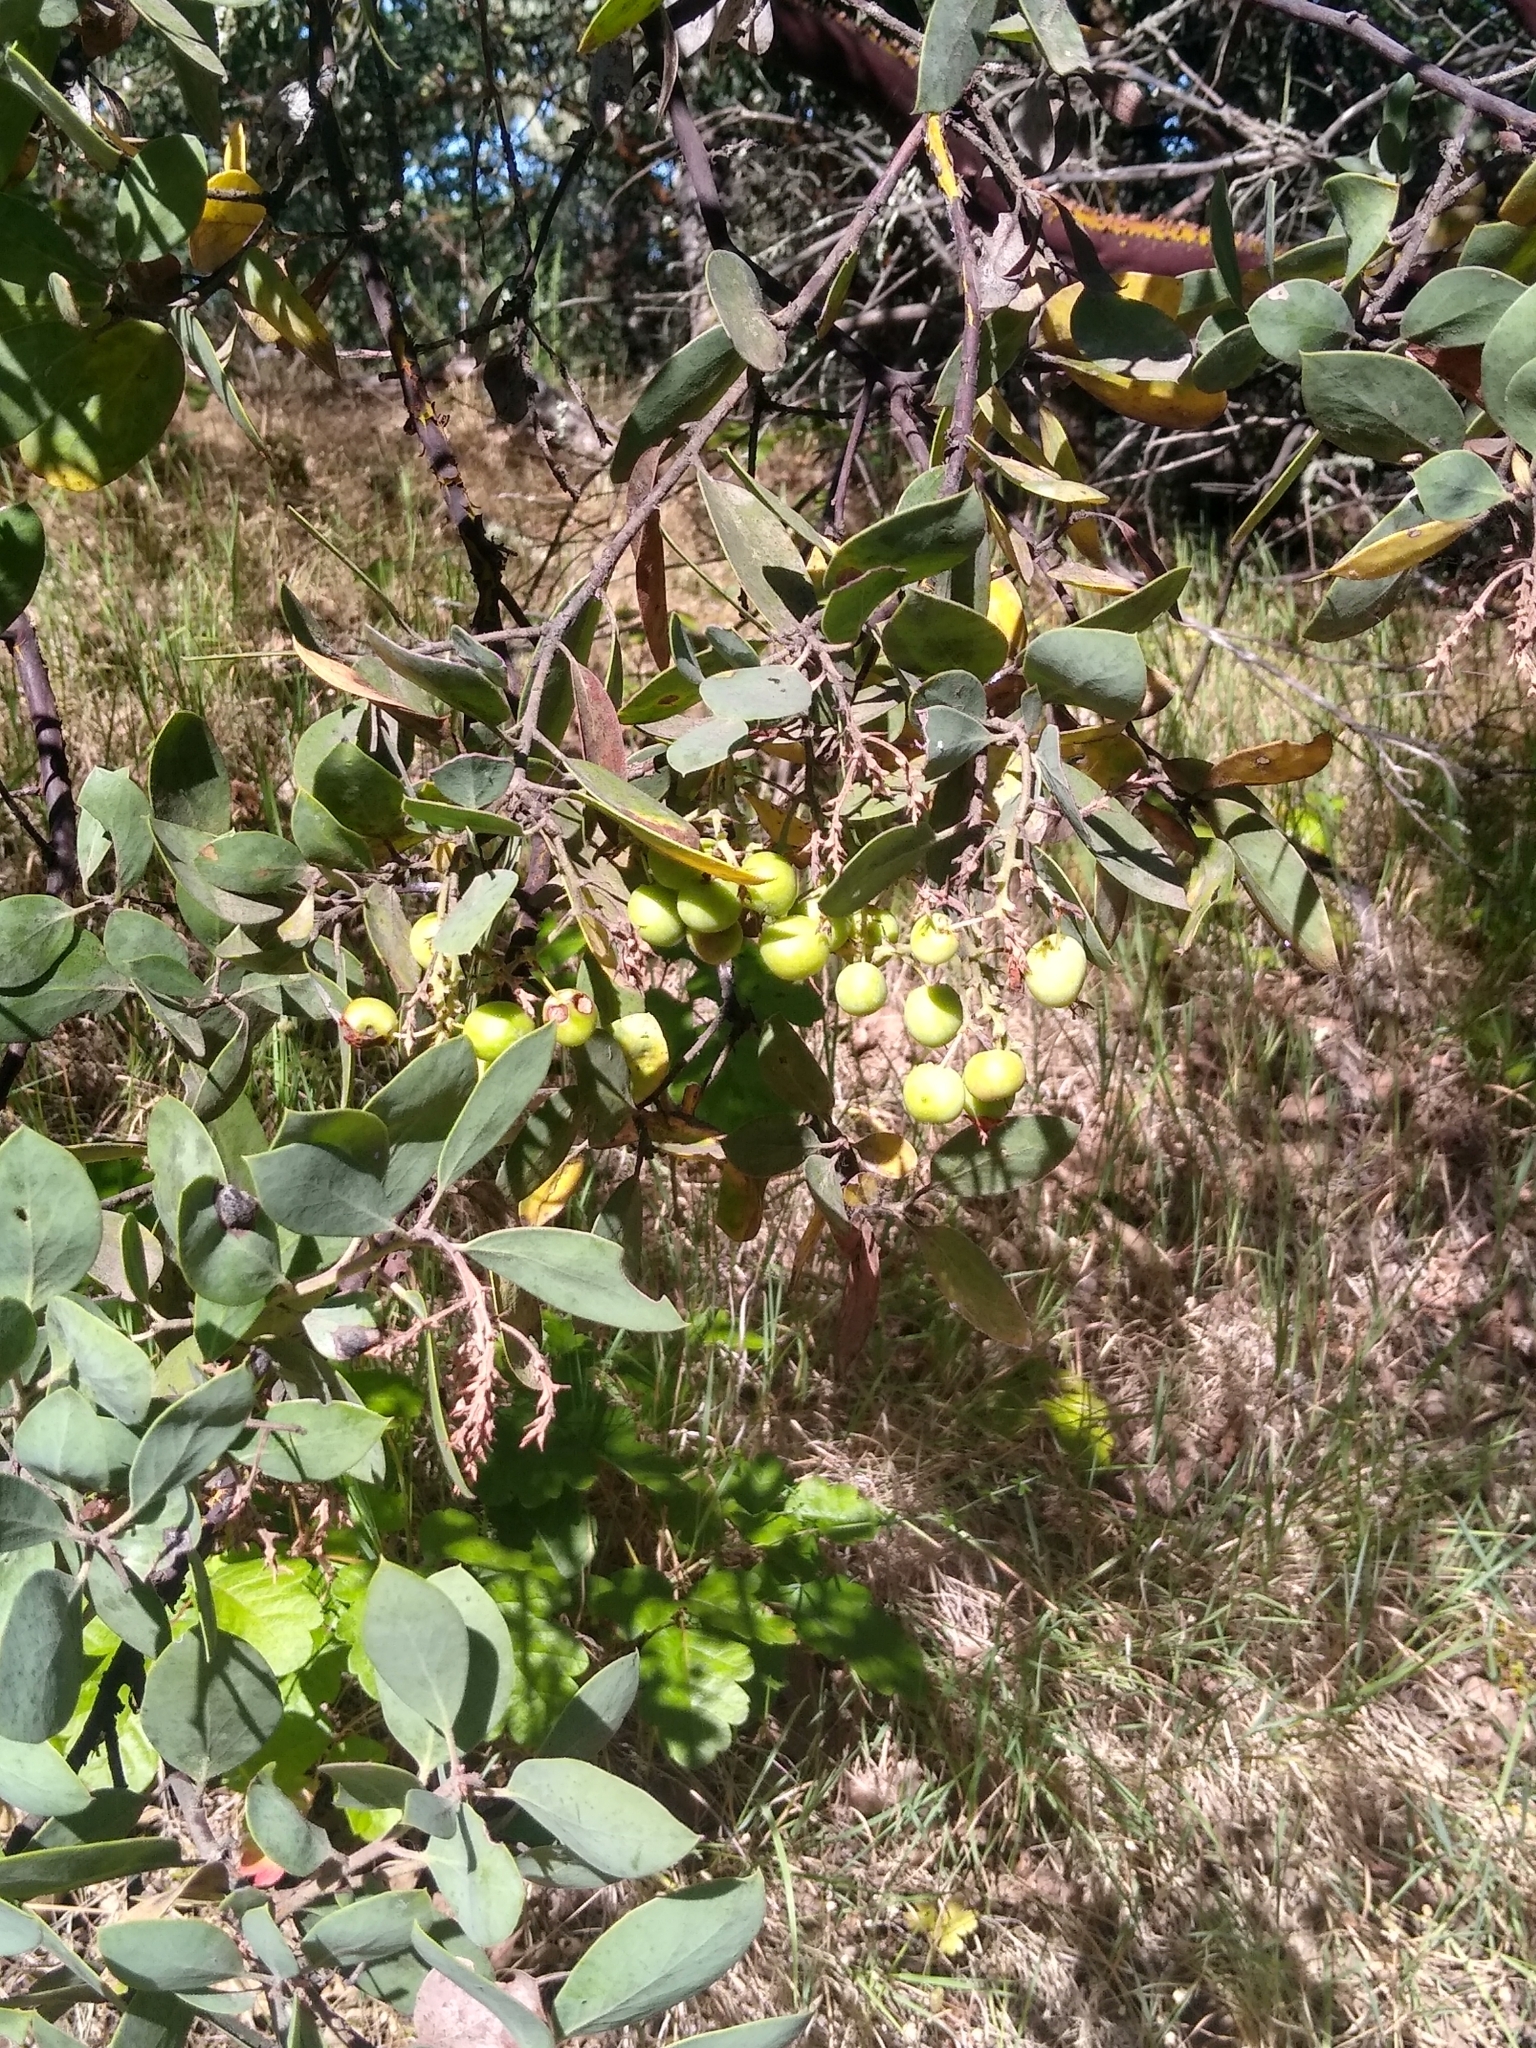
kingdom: Plantae
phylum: Tracheophyta
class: Magnoliopsida
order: Ericales
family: Ericaceae
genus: Arctostaphylos
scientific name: Arctostaphylos manzanita
